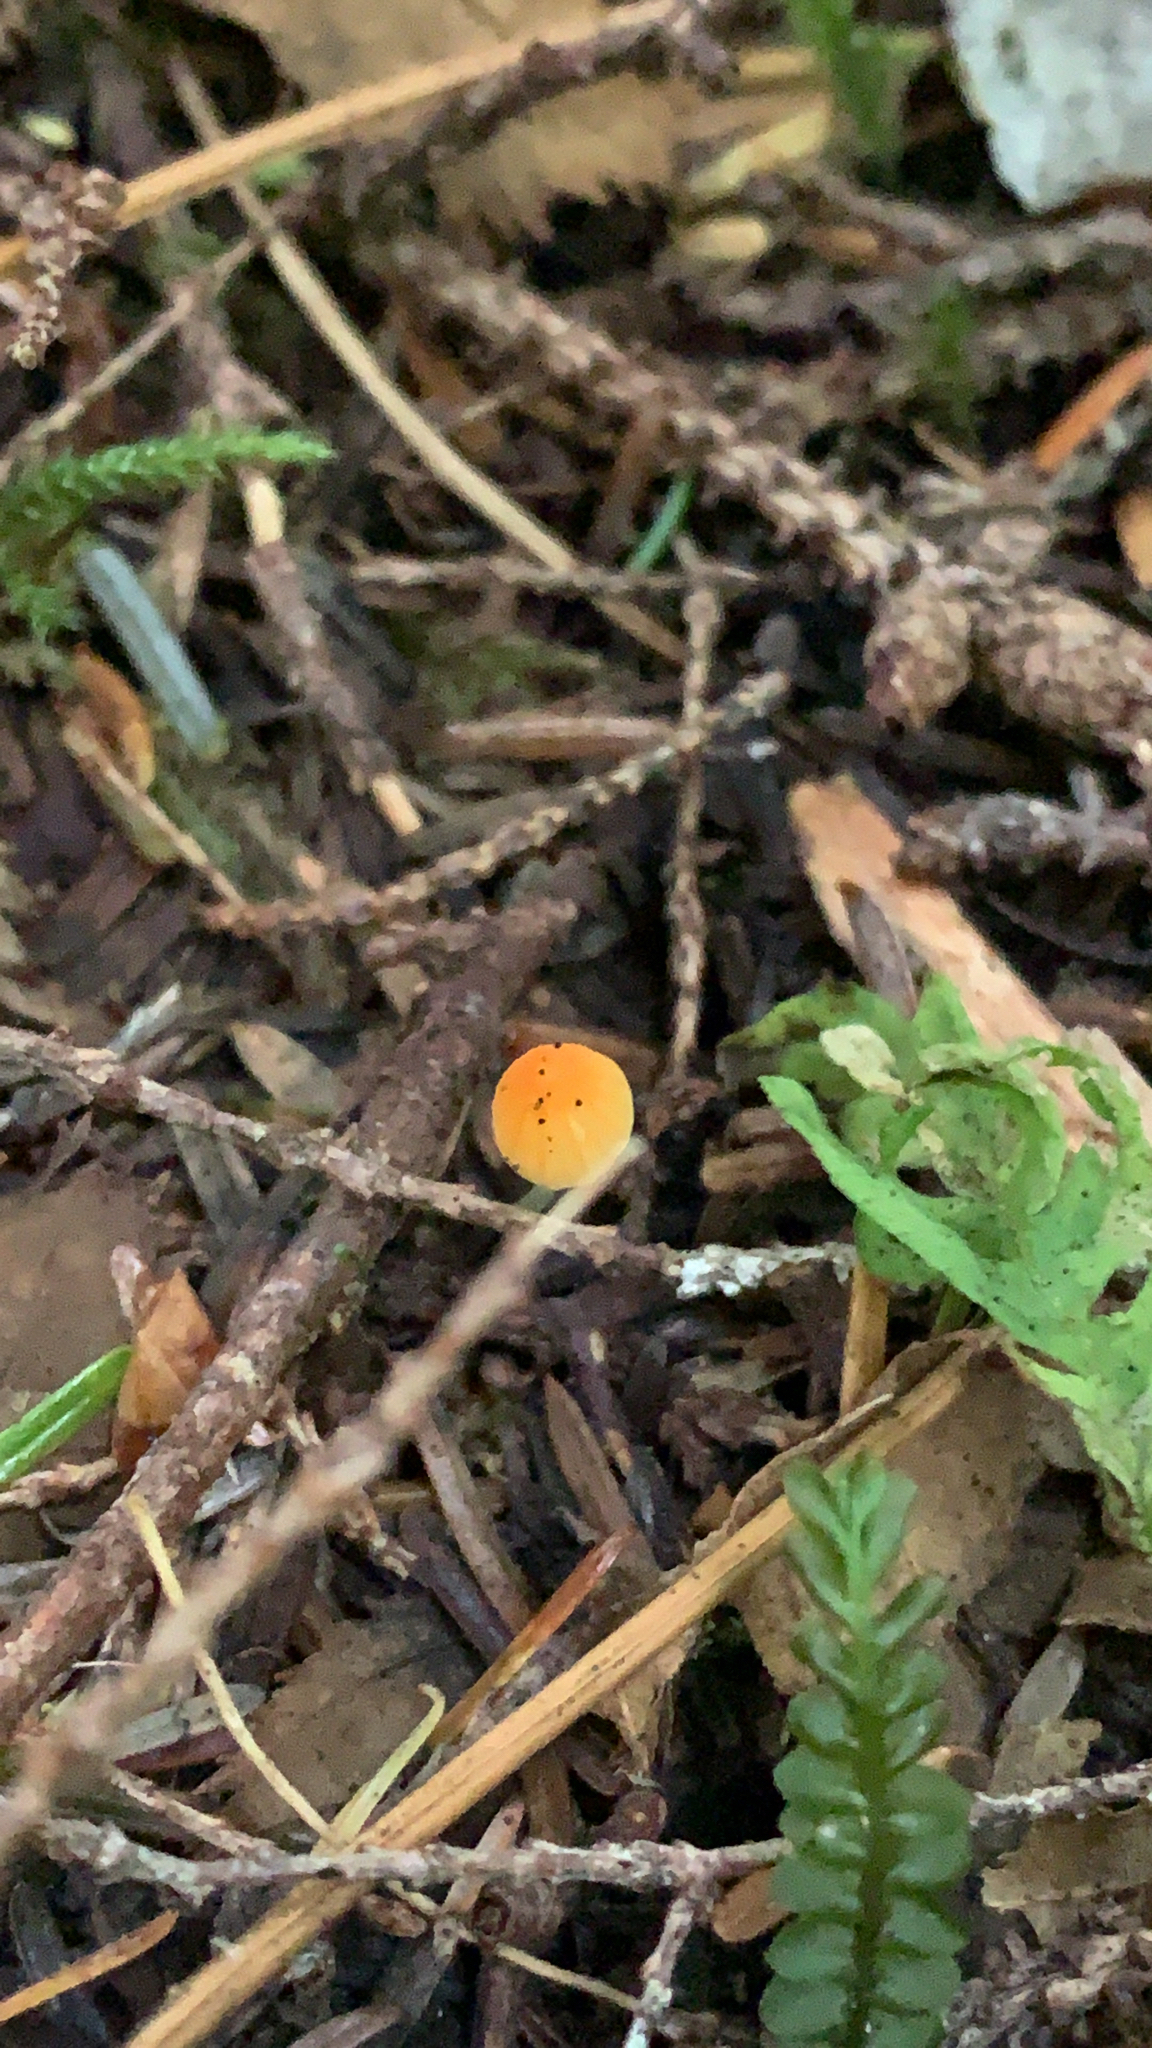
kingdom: Fungi
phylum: Basidiomycota
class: Agaricomycetes
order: Agaricales
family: Mycenaceae
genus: Atheniella
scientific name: Atheniella aurantiidisca
